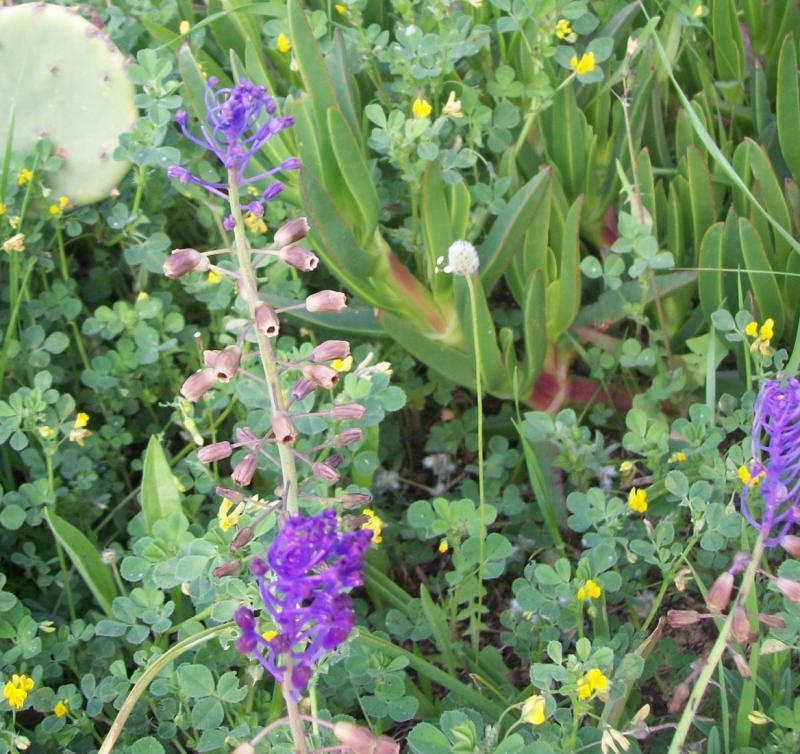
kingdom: Plantae
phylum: Tracheophyta
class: Liliopsida
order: Asparagales
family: Asparagaceae
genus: Muscari
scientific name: Muscari comosum
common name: Tassel hyacinth
